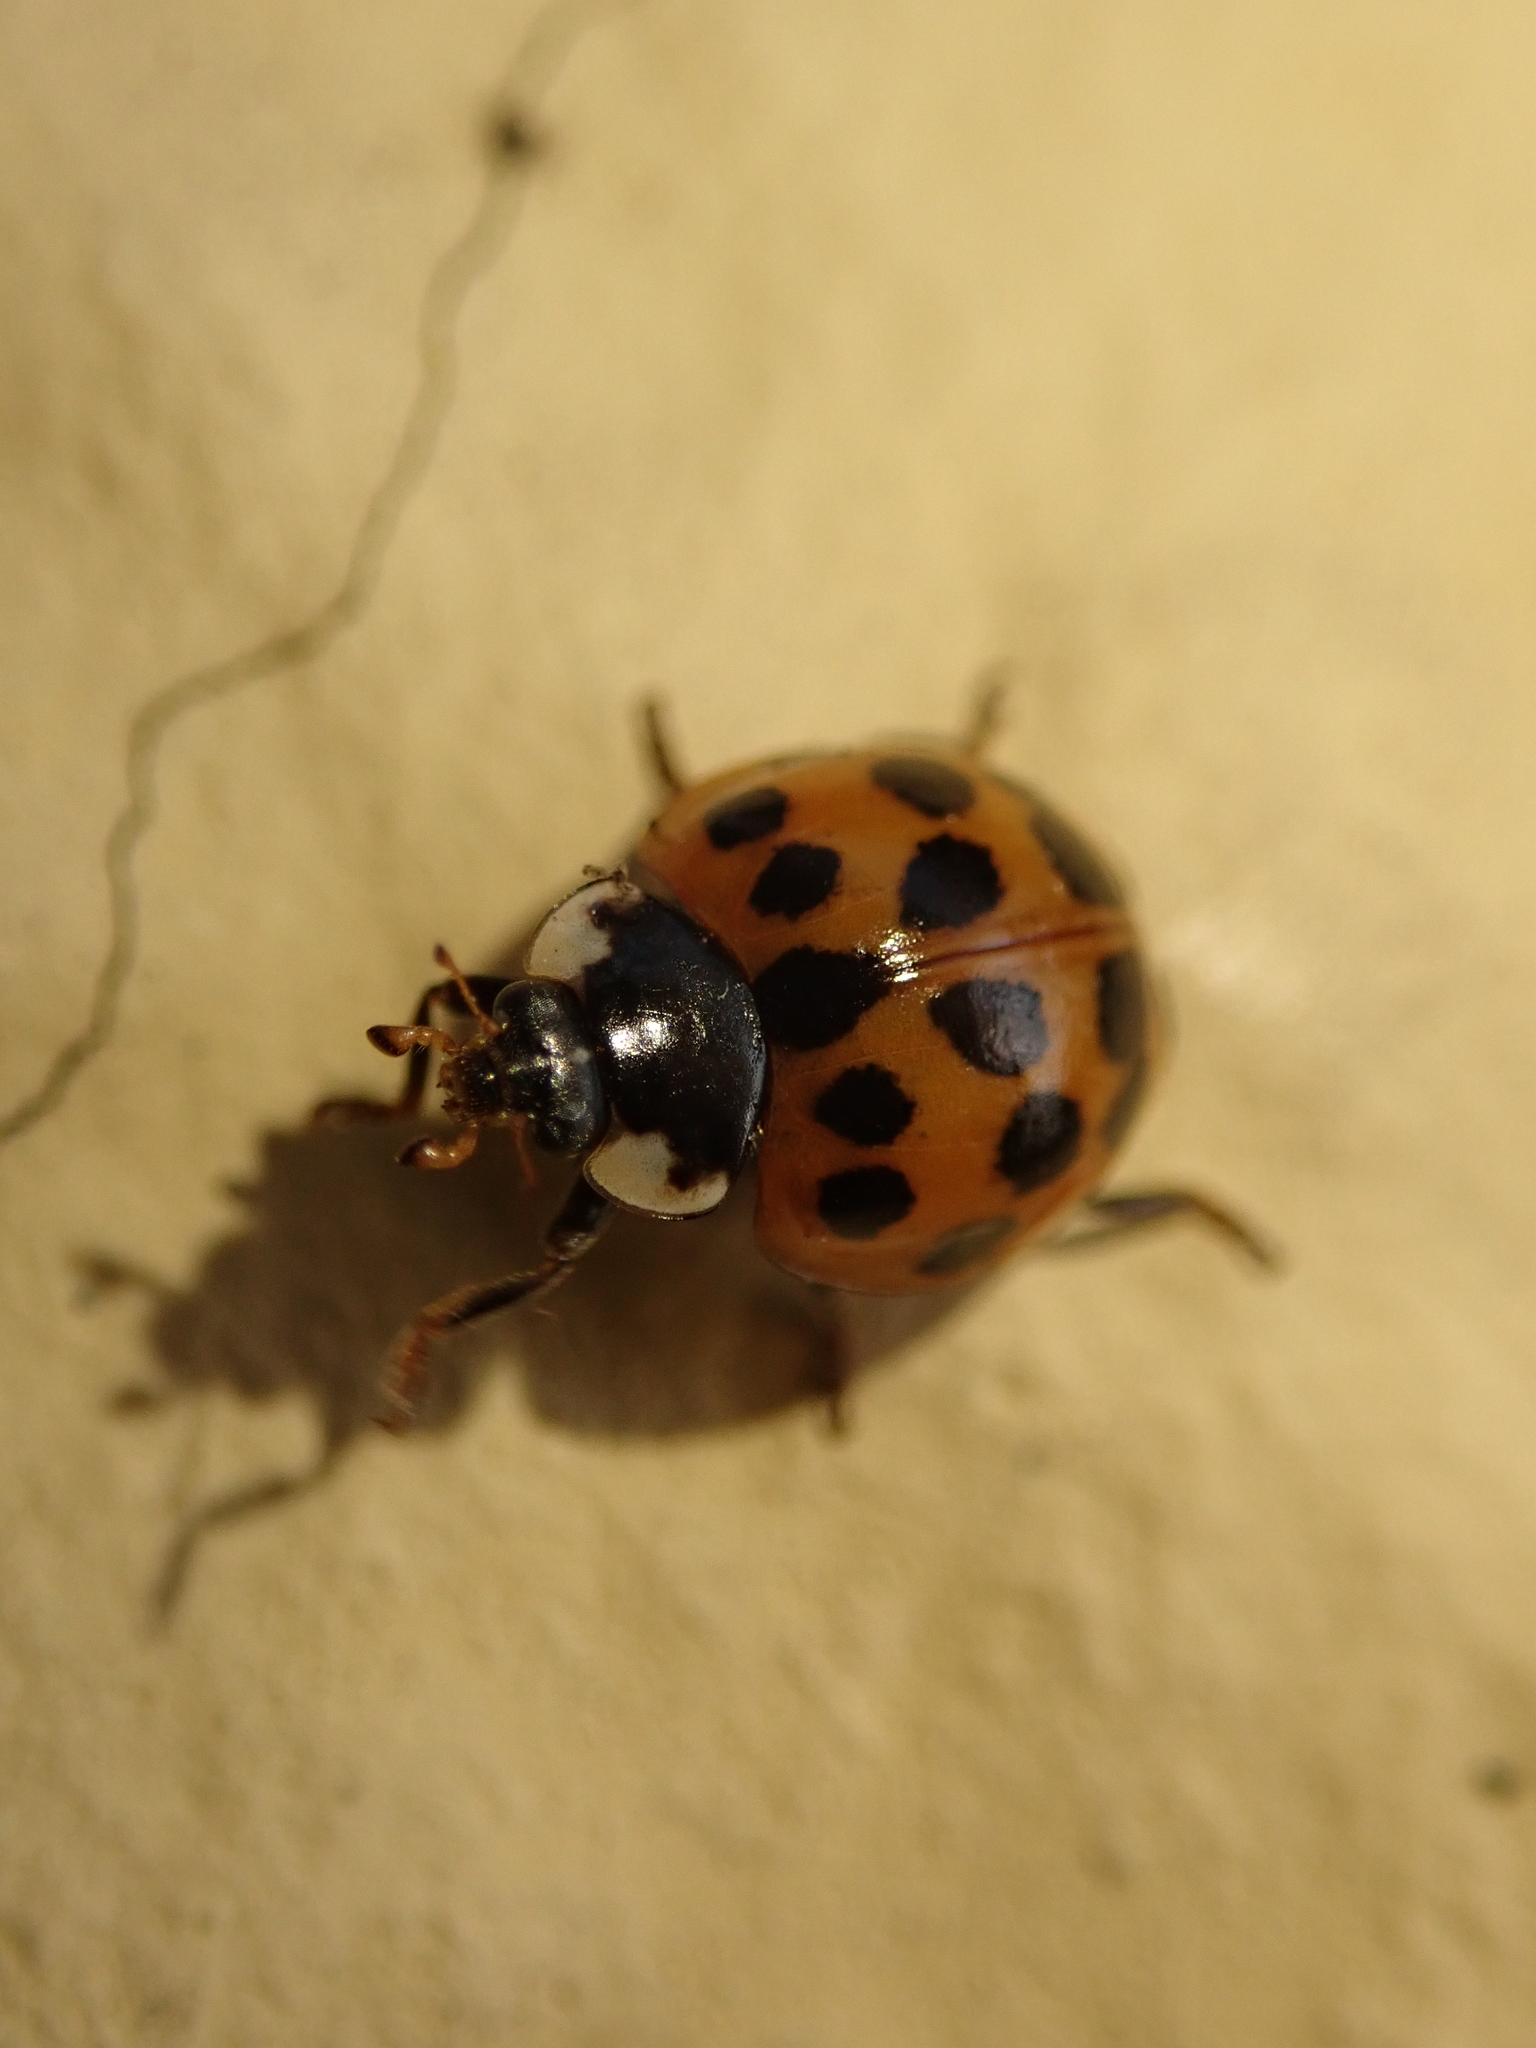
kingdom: Animalia
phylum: Arthropoda
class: Insecta
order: Coleoptera
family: Coccinellidae
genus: Harmonia
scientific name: Harmonia axyridis
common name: Harlequin ladybird
